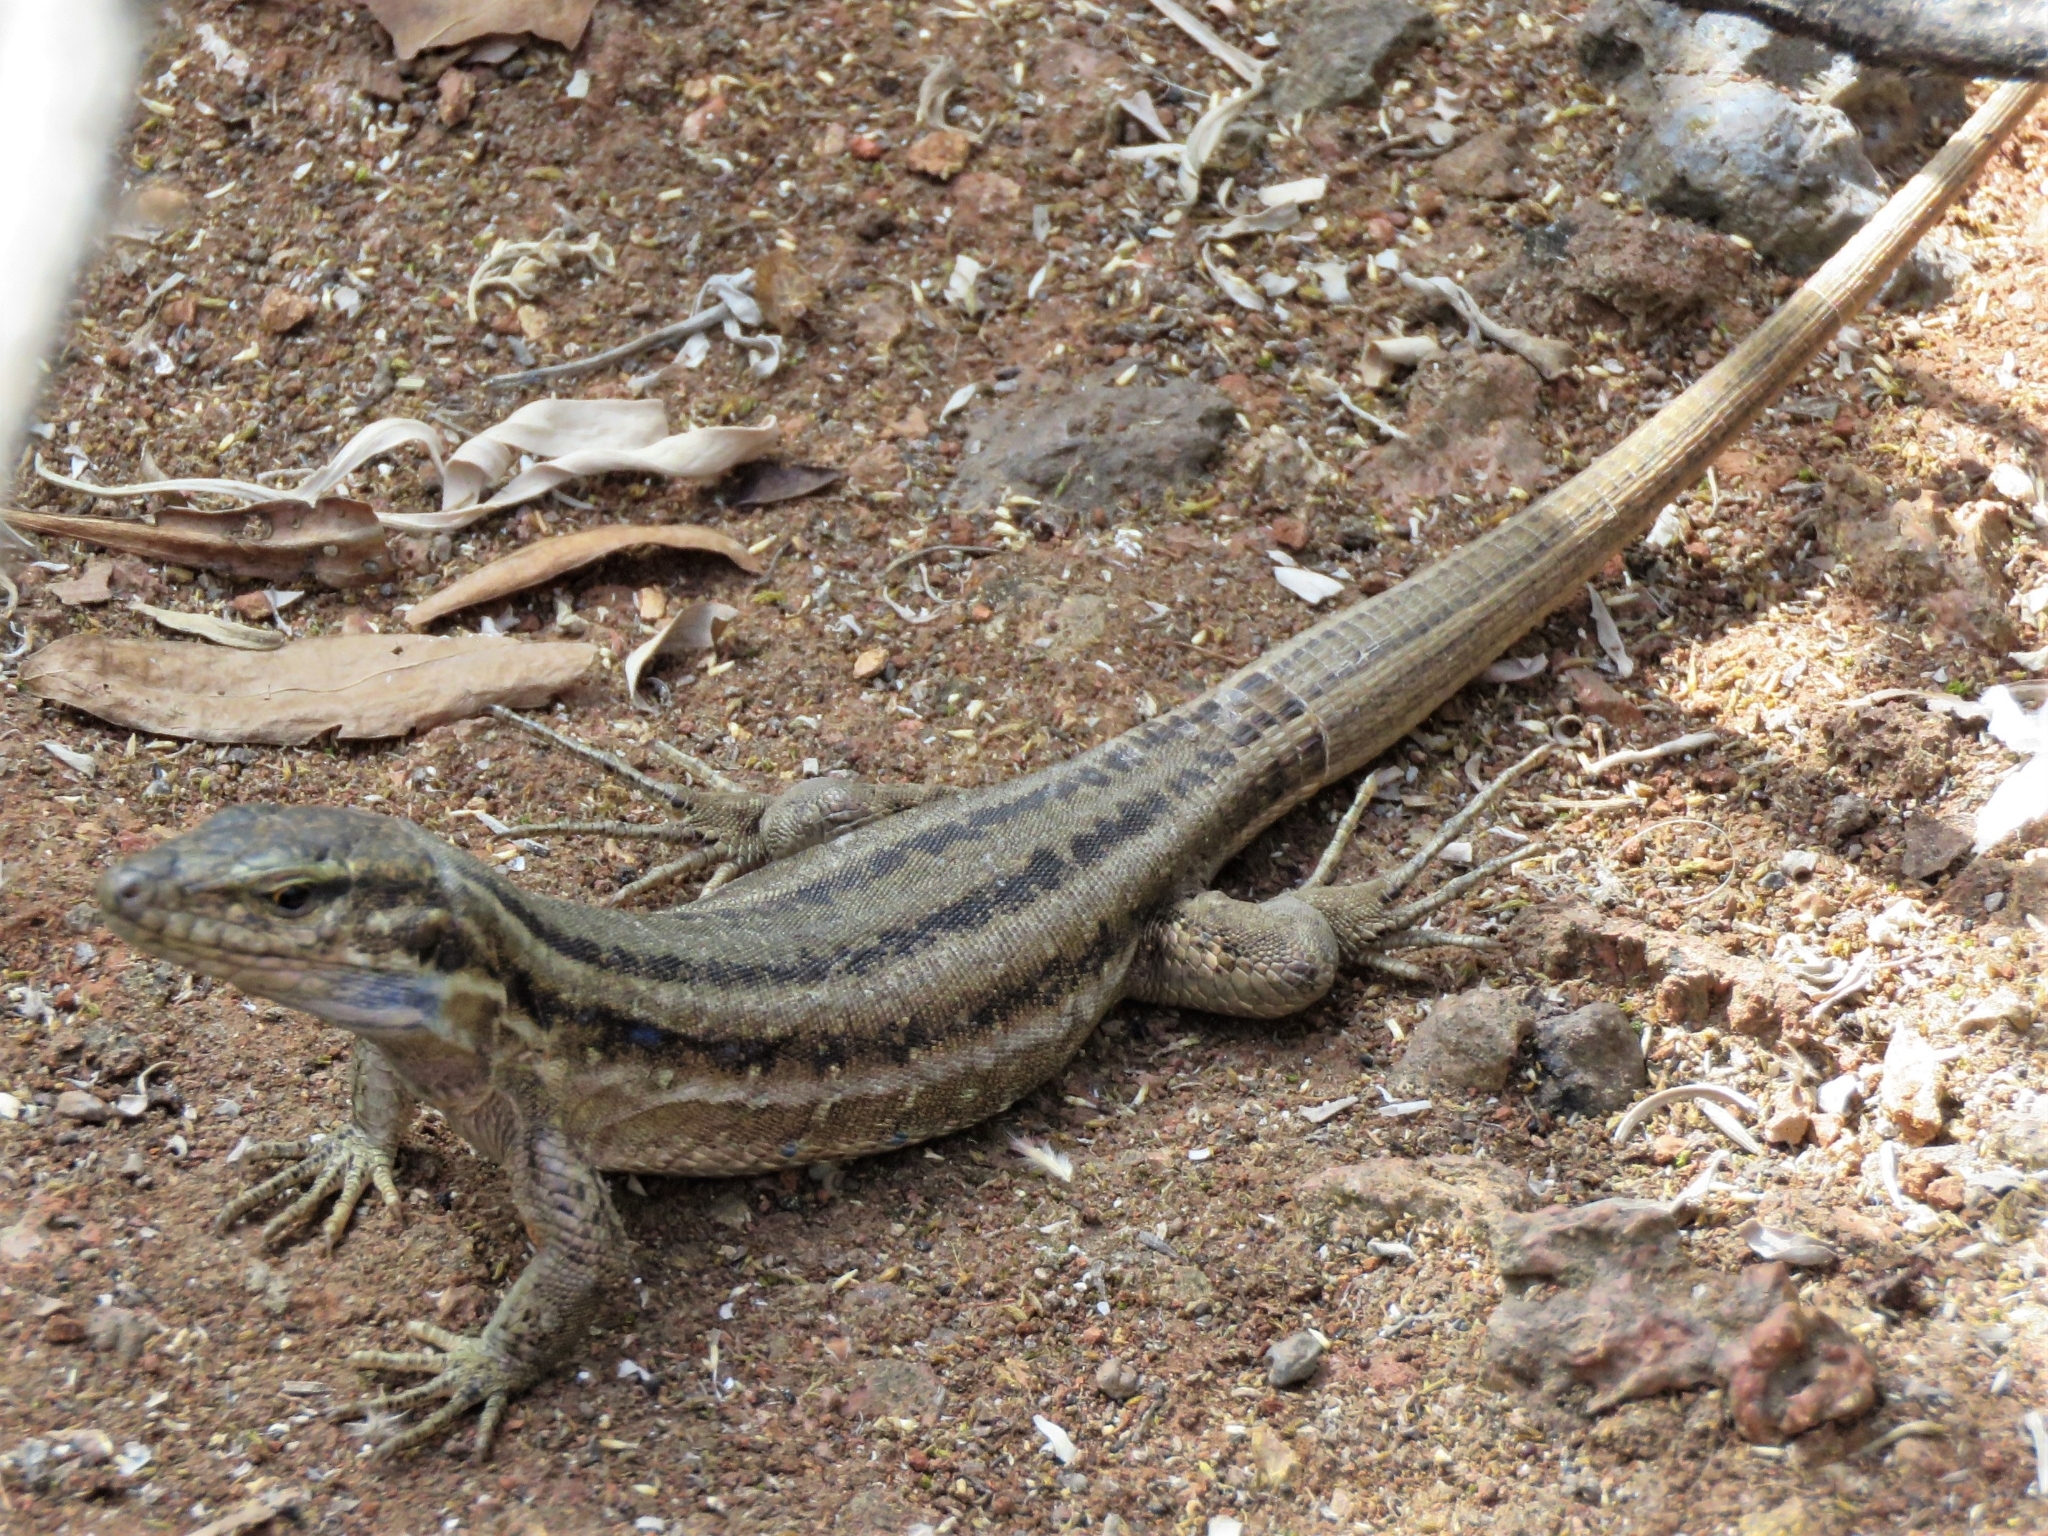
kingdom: Animalia
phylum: Chordata
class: Squamata
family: Lacertidae
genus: Gallotia
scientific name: Gallotia galloti
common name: Gallot's lizard
